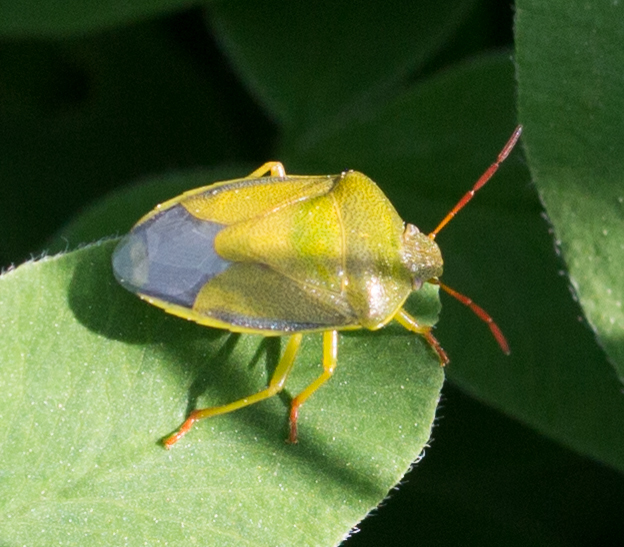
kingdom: Animalia
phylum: Arthropoda
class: Insecta
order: Hemiptera
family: Pentatomidae
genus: Piezodorus
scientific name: Piezodorus lituratus
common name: Stink bug
